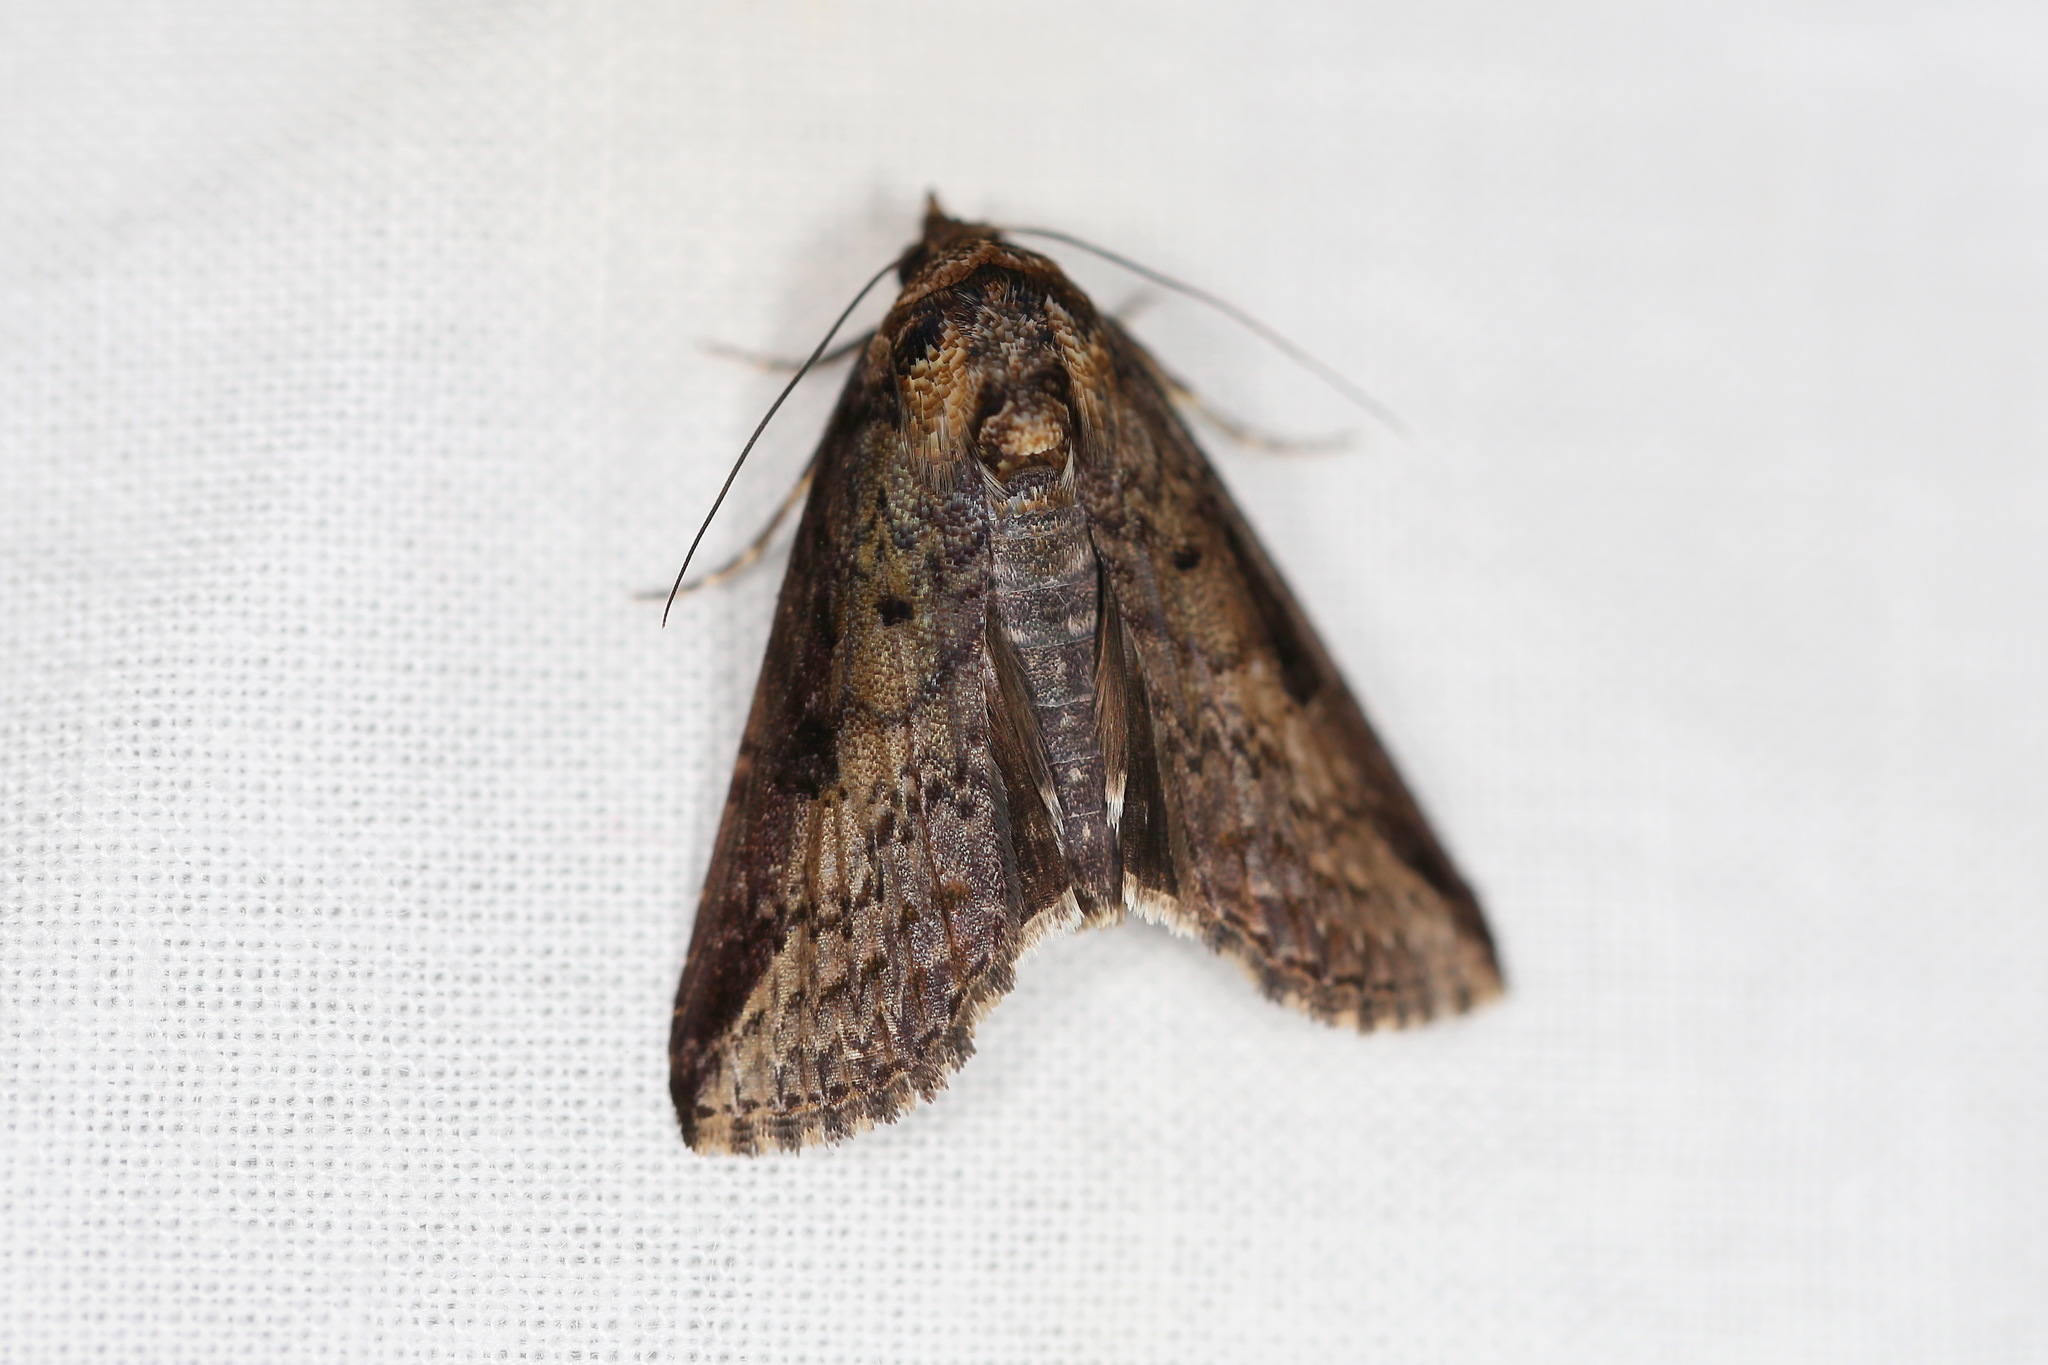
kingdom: Animalia
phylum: Arthropoda
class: Insecta
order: Lepidoptera
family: Euteliidae
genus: Lophoptera
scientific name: Lophoptera vittigera
